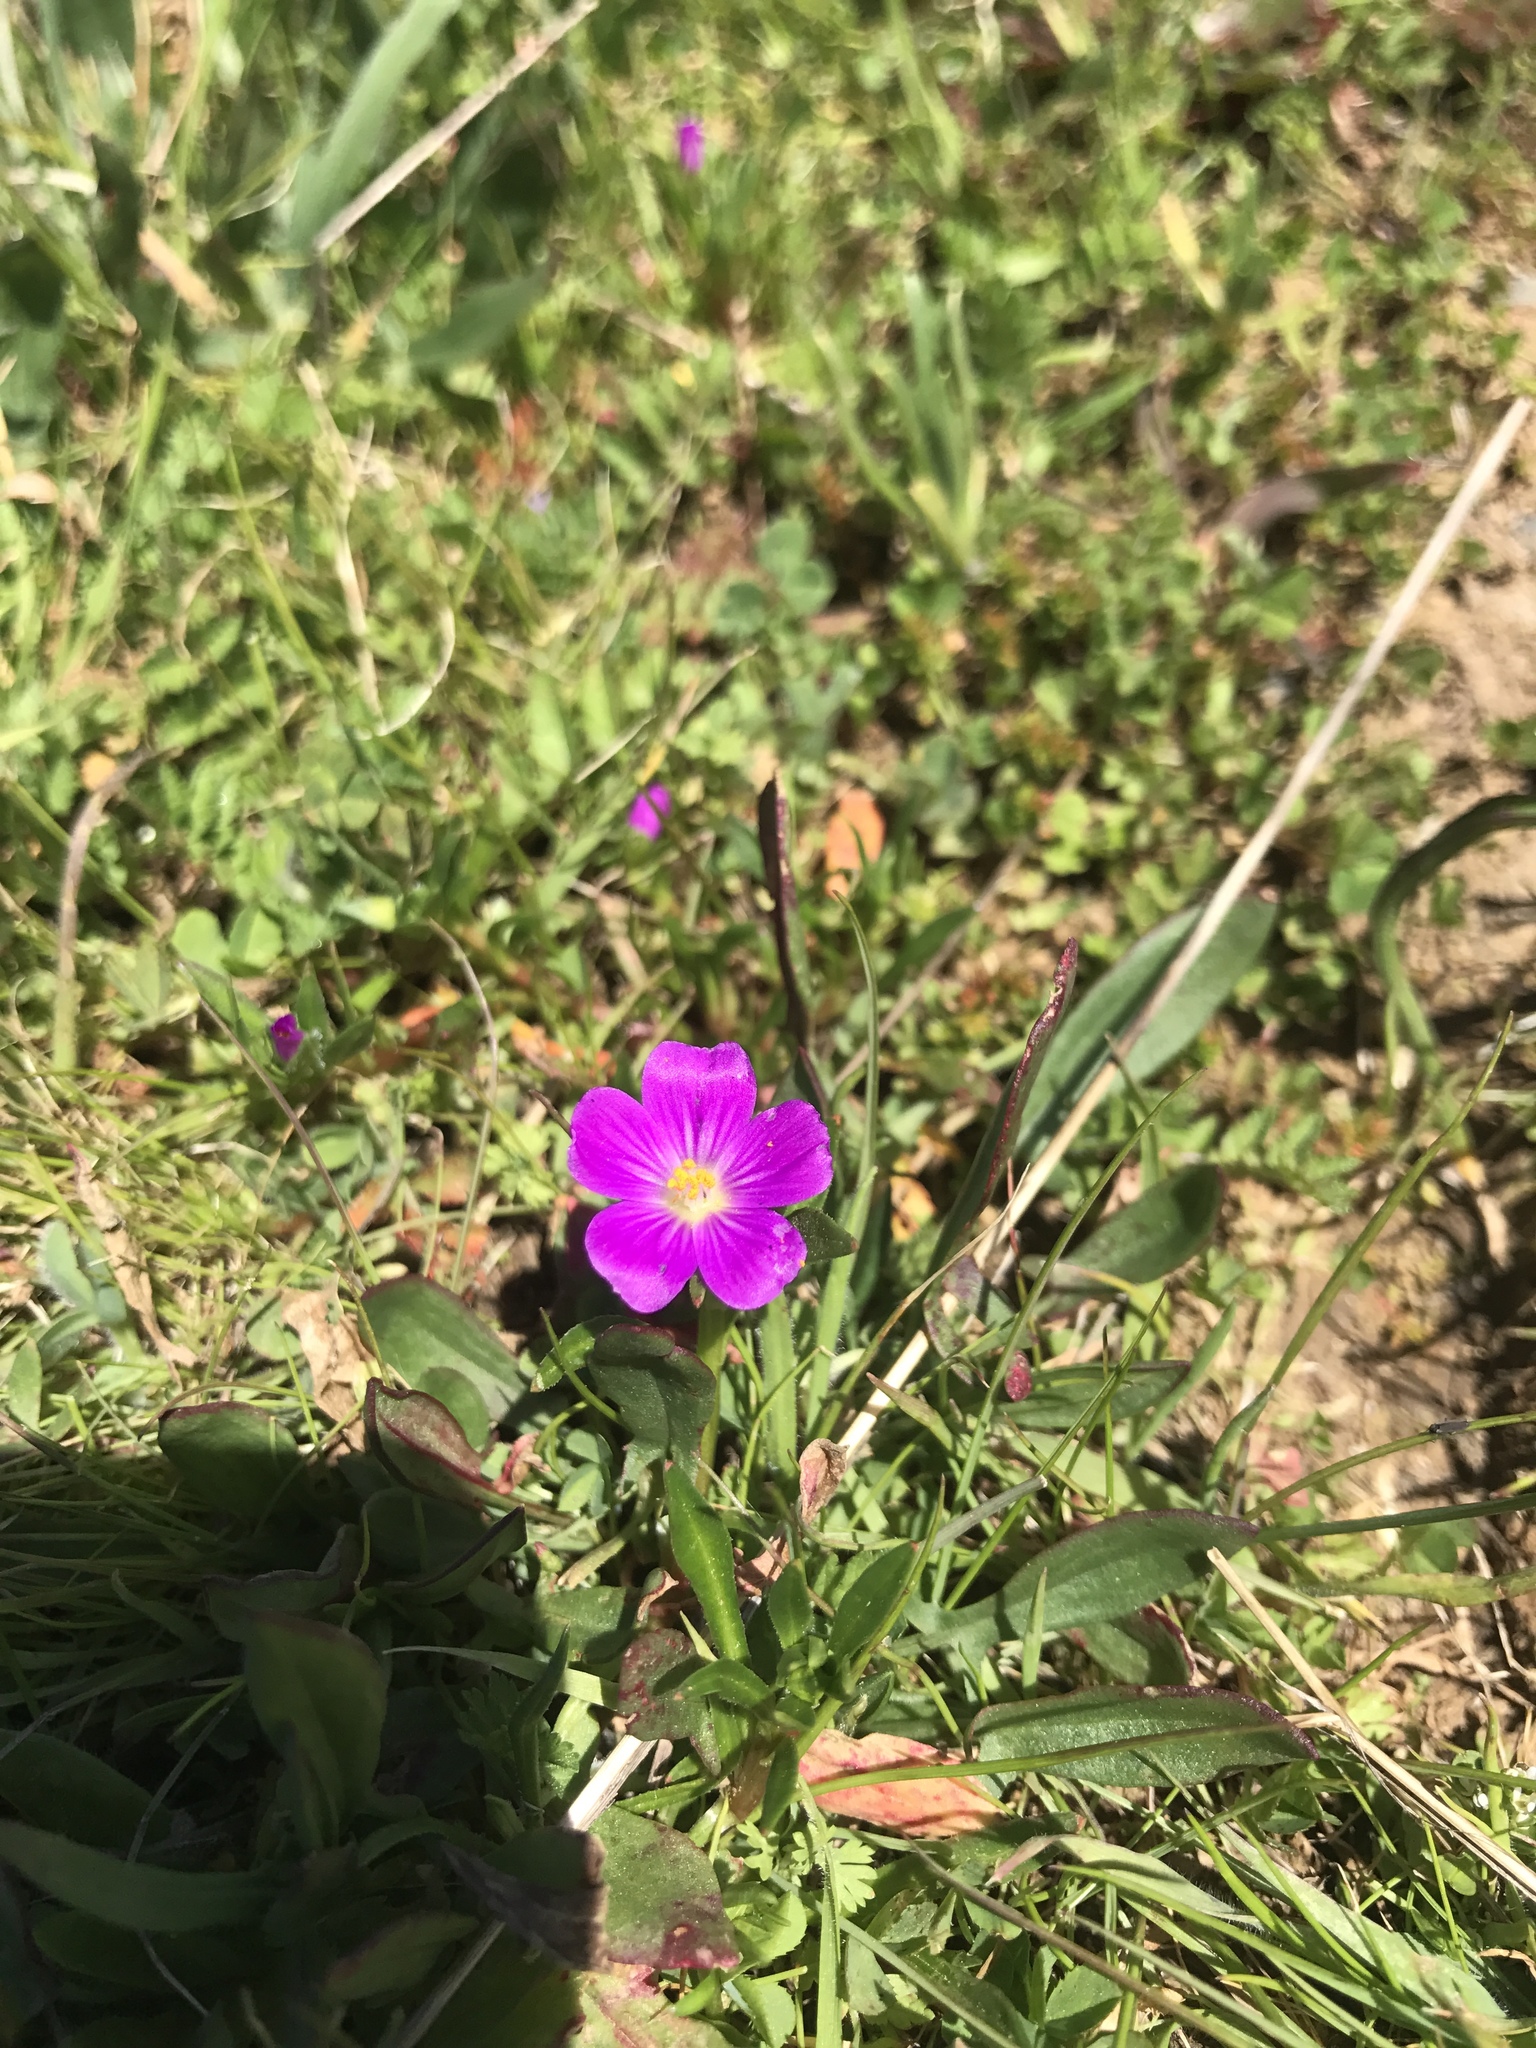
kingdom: Plantae
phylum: Tracheophyta
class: Magnoliopsida
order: Caryophyllales
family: Montiaceae
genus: Calandrinia
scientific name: Calandrinia menziesii
